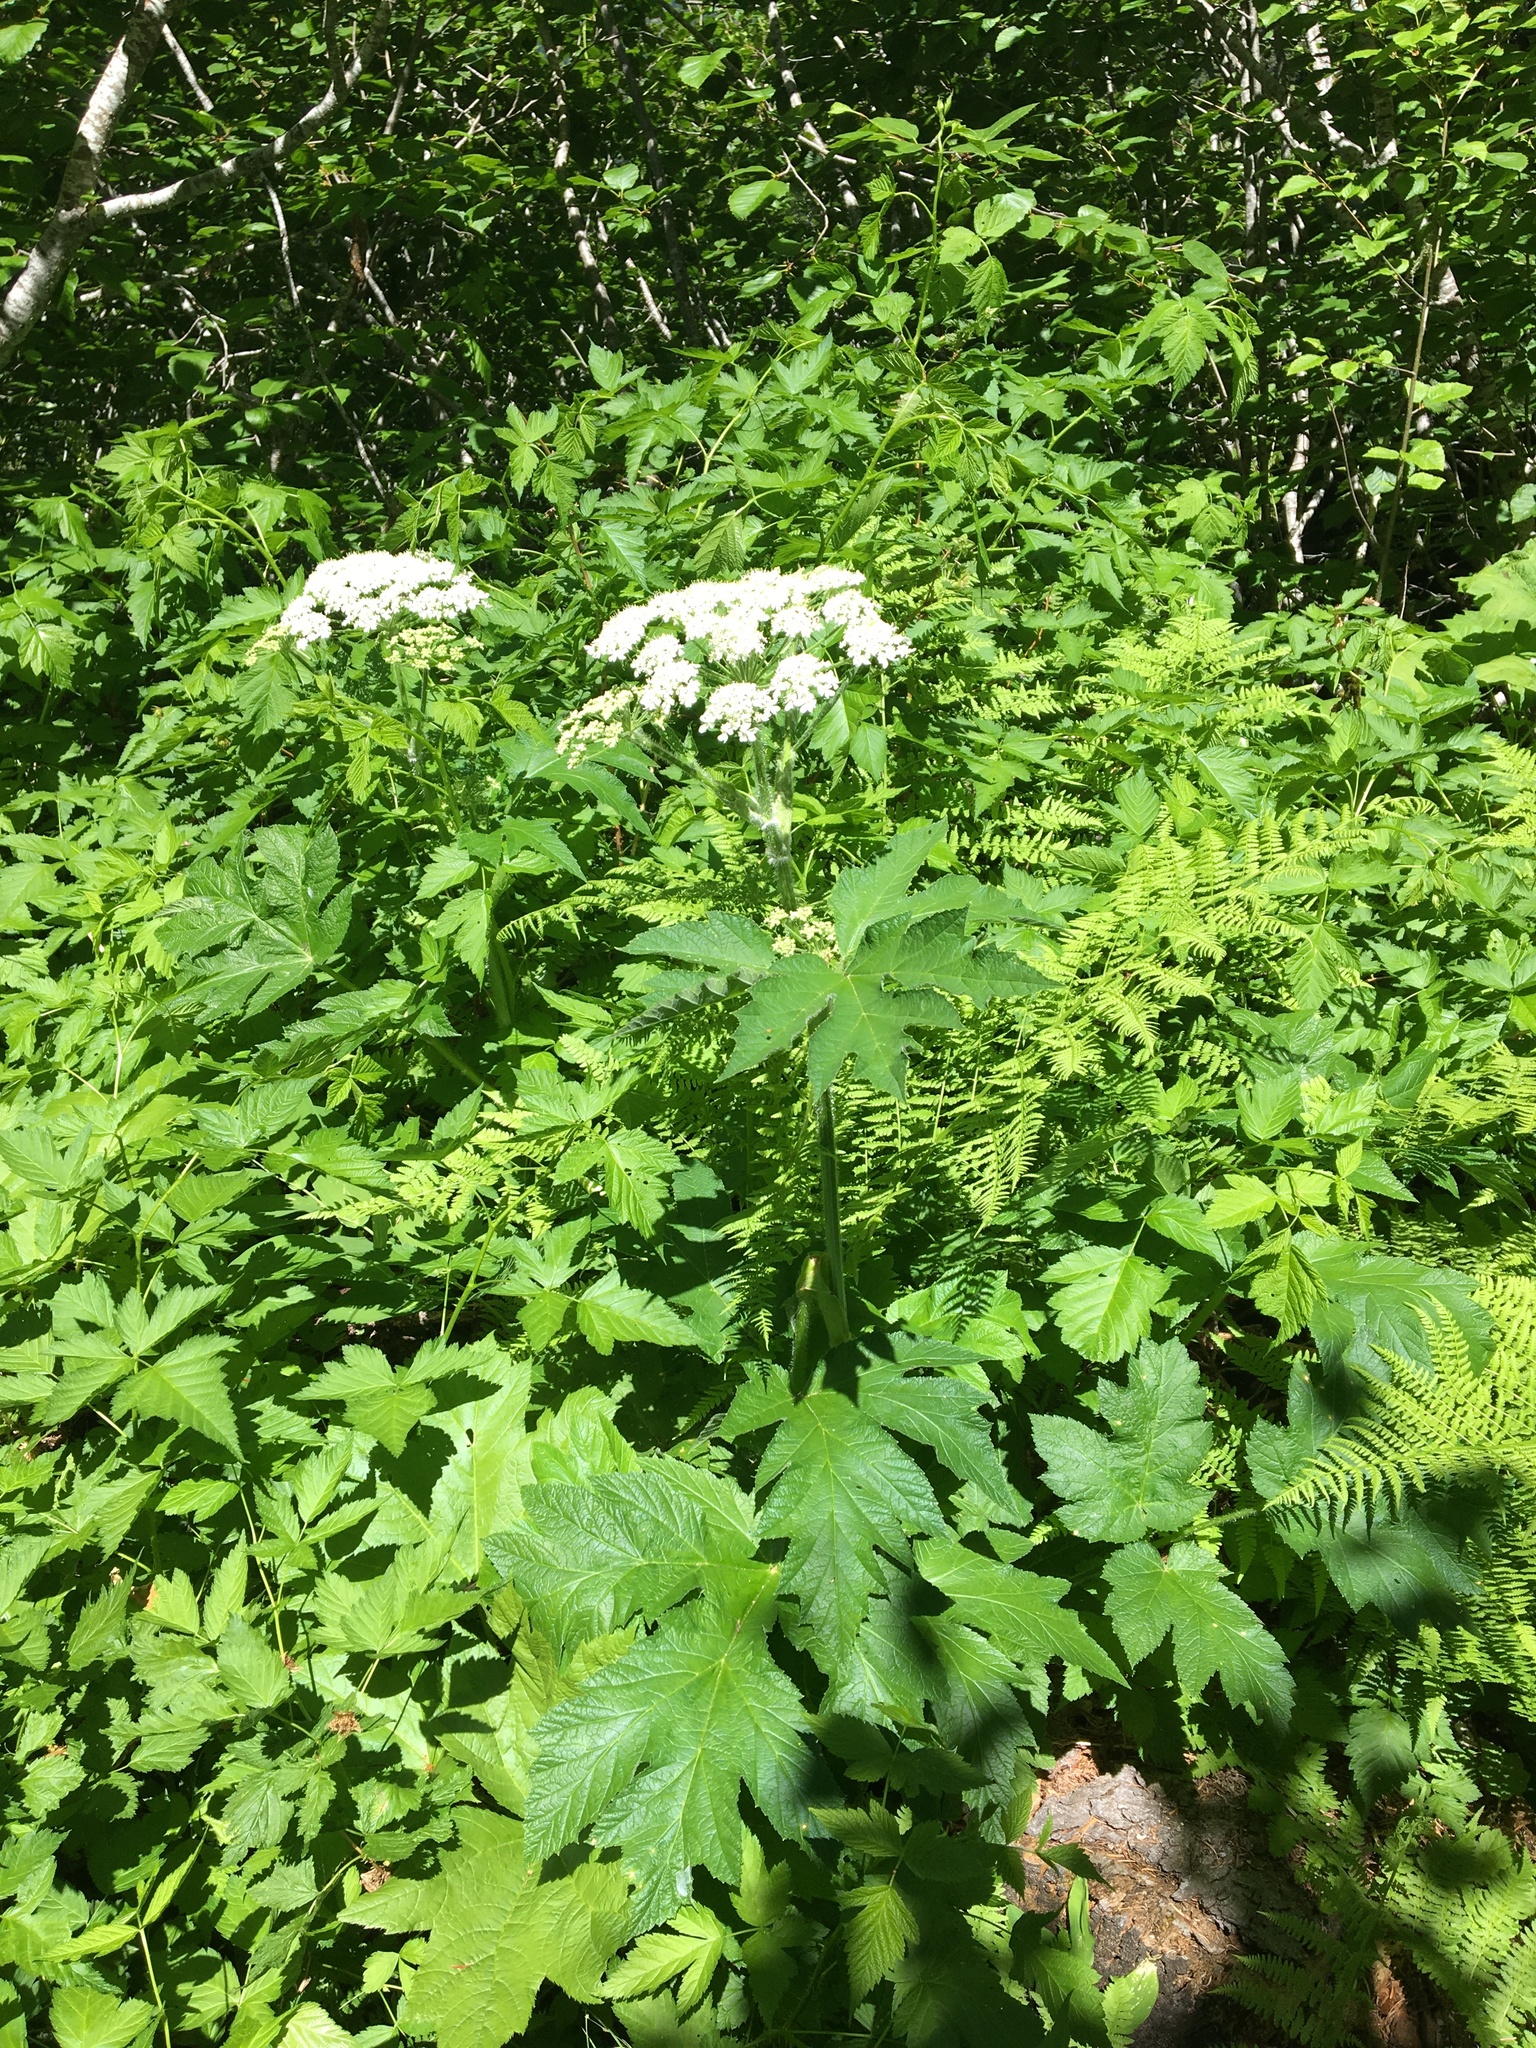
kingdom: Plantae
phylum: Tracheophyta
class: Magnoliopsida
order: Apiales
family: Apiaceae
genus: Heracleum
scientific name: Heracleum maximum
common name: American cow parsnip
